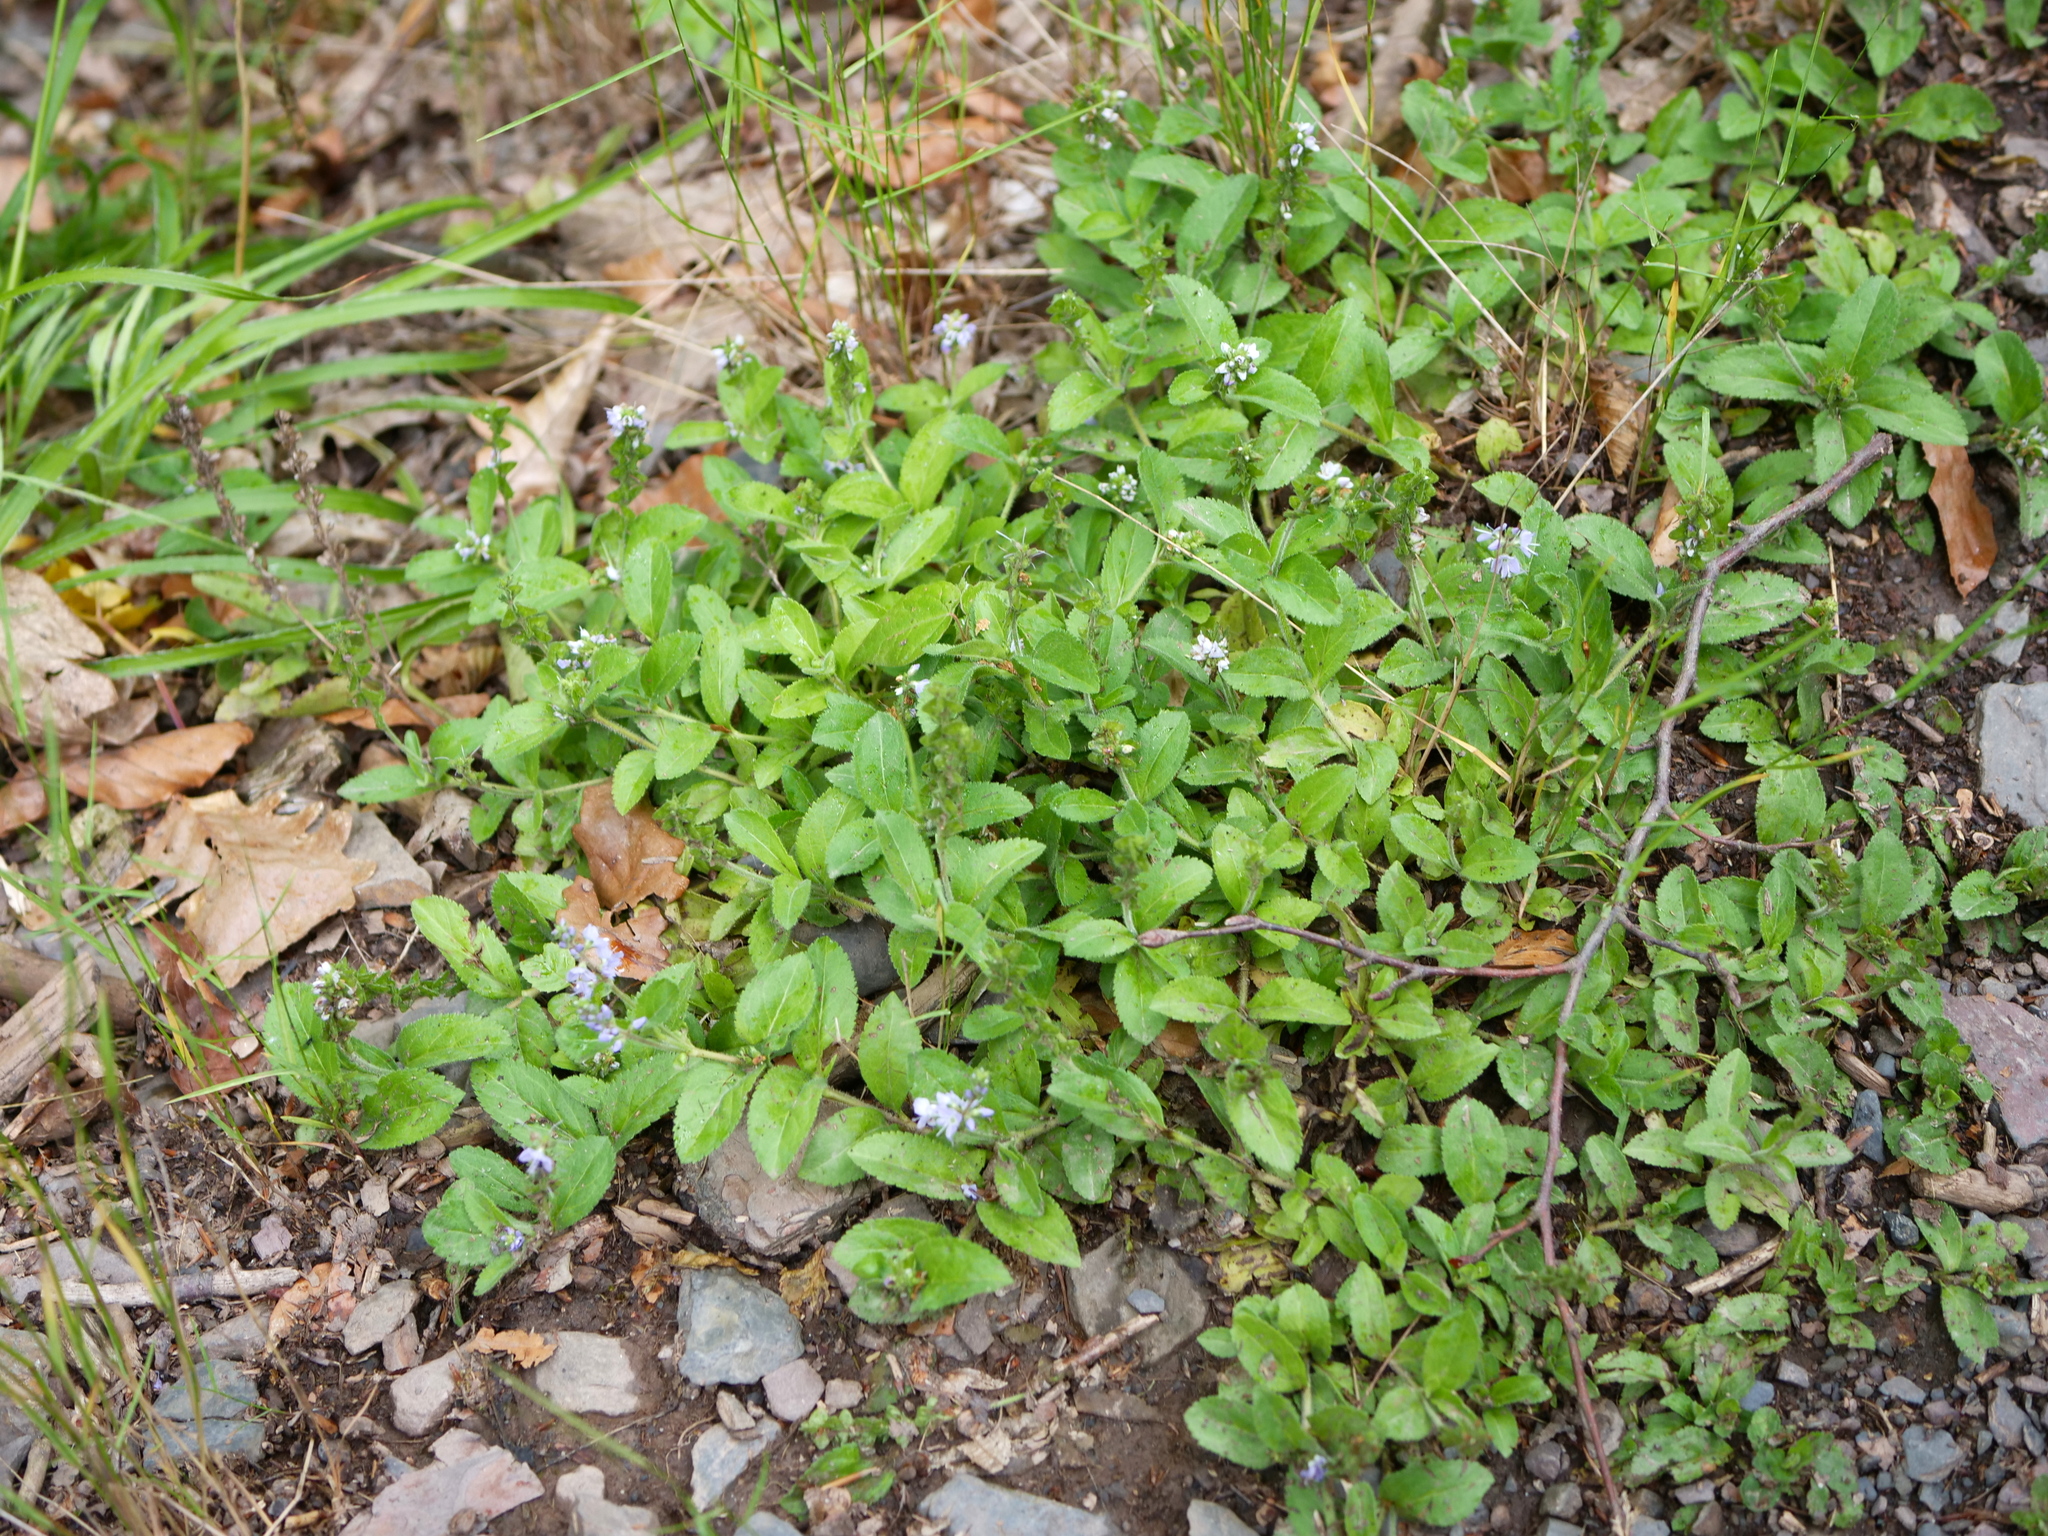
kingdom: Plantae
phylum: Tracheophyta
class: Magnoliopsida
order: Lamiales
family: Plantaginaceae
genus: Veronica
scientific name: Veronica officinalis
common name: Common speedwell
